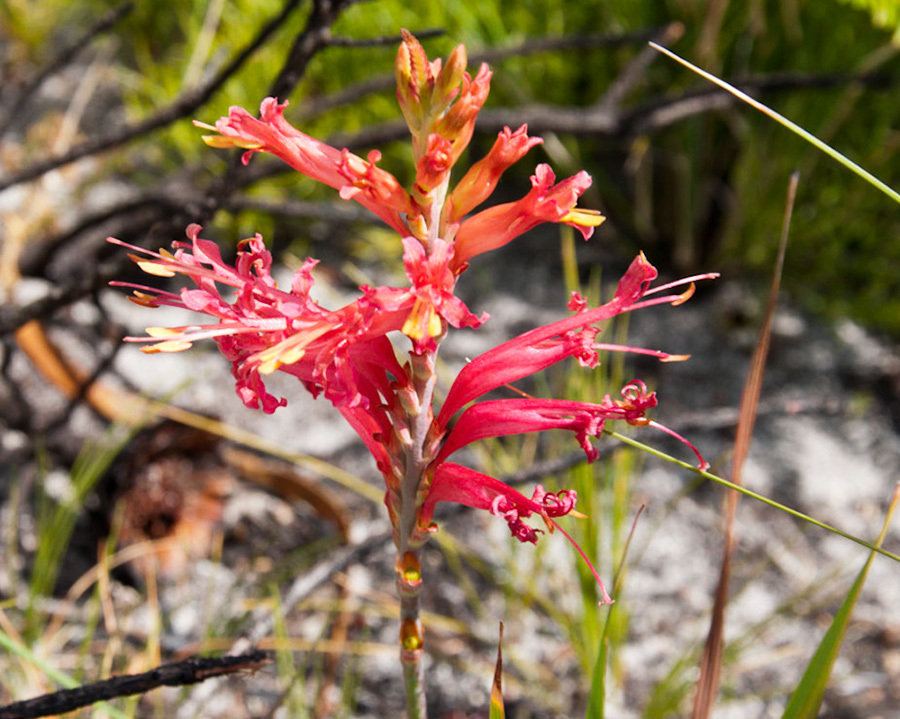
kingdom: Plantae
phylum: Tracheophyta
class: Liliopsida
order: Asparagales
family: Iridaceae
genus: Tritoniopsis
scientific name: Tritoniopsis antholyza
